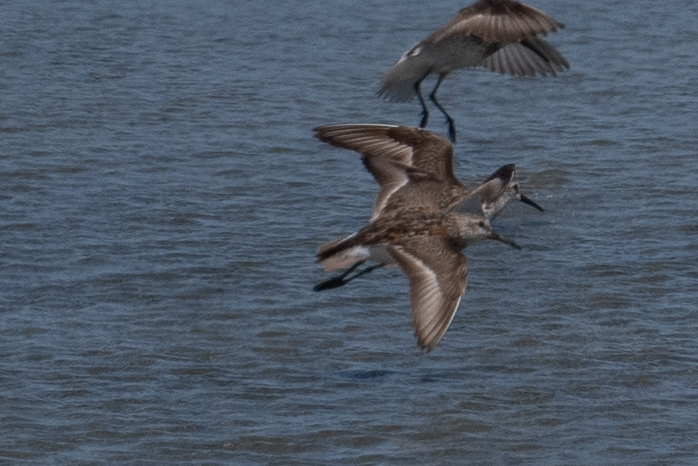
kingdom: Animalia
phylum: Chordata
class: Aves
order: Charadriiformes
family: Scolopacidae
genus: Calidris
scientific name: Calidris mauri
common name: Western sandpiper
